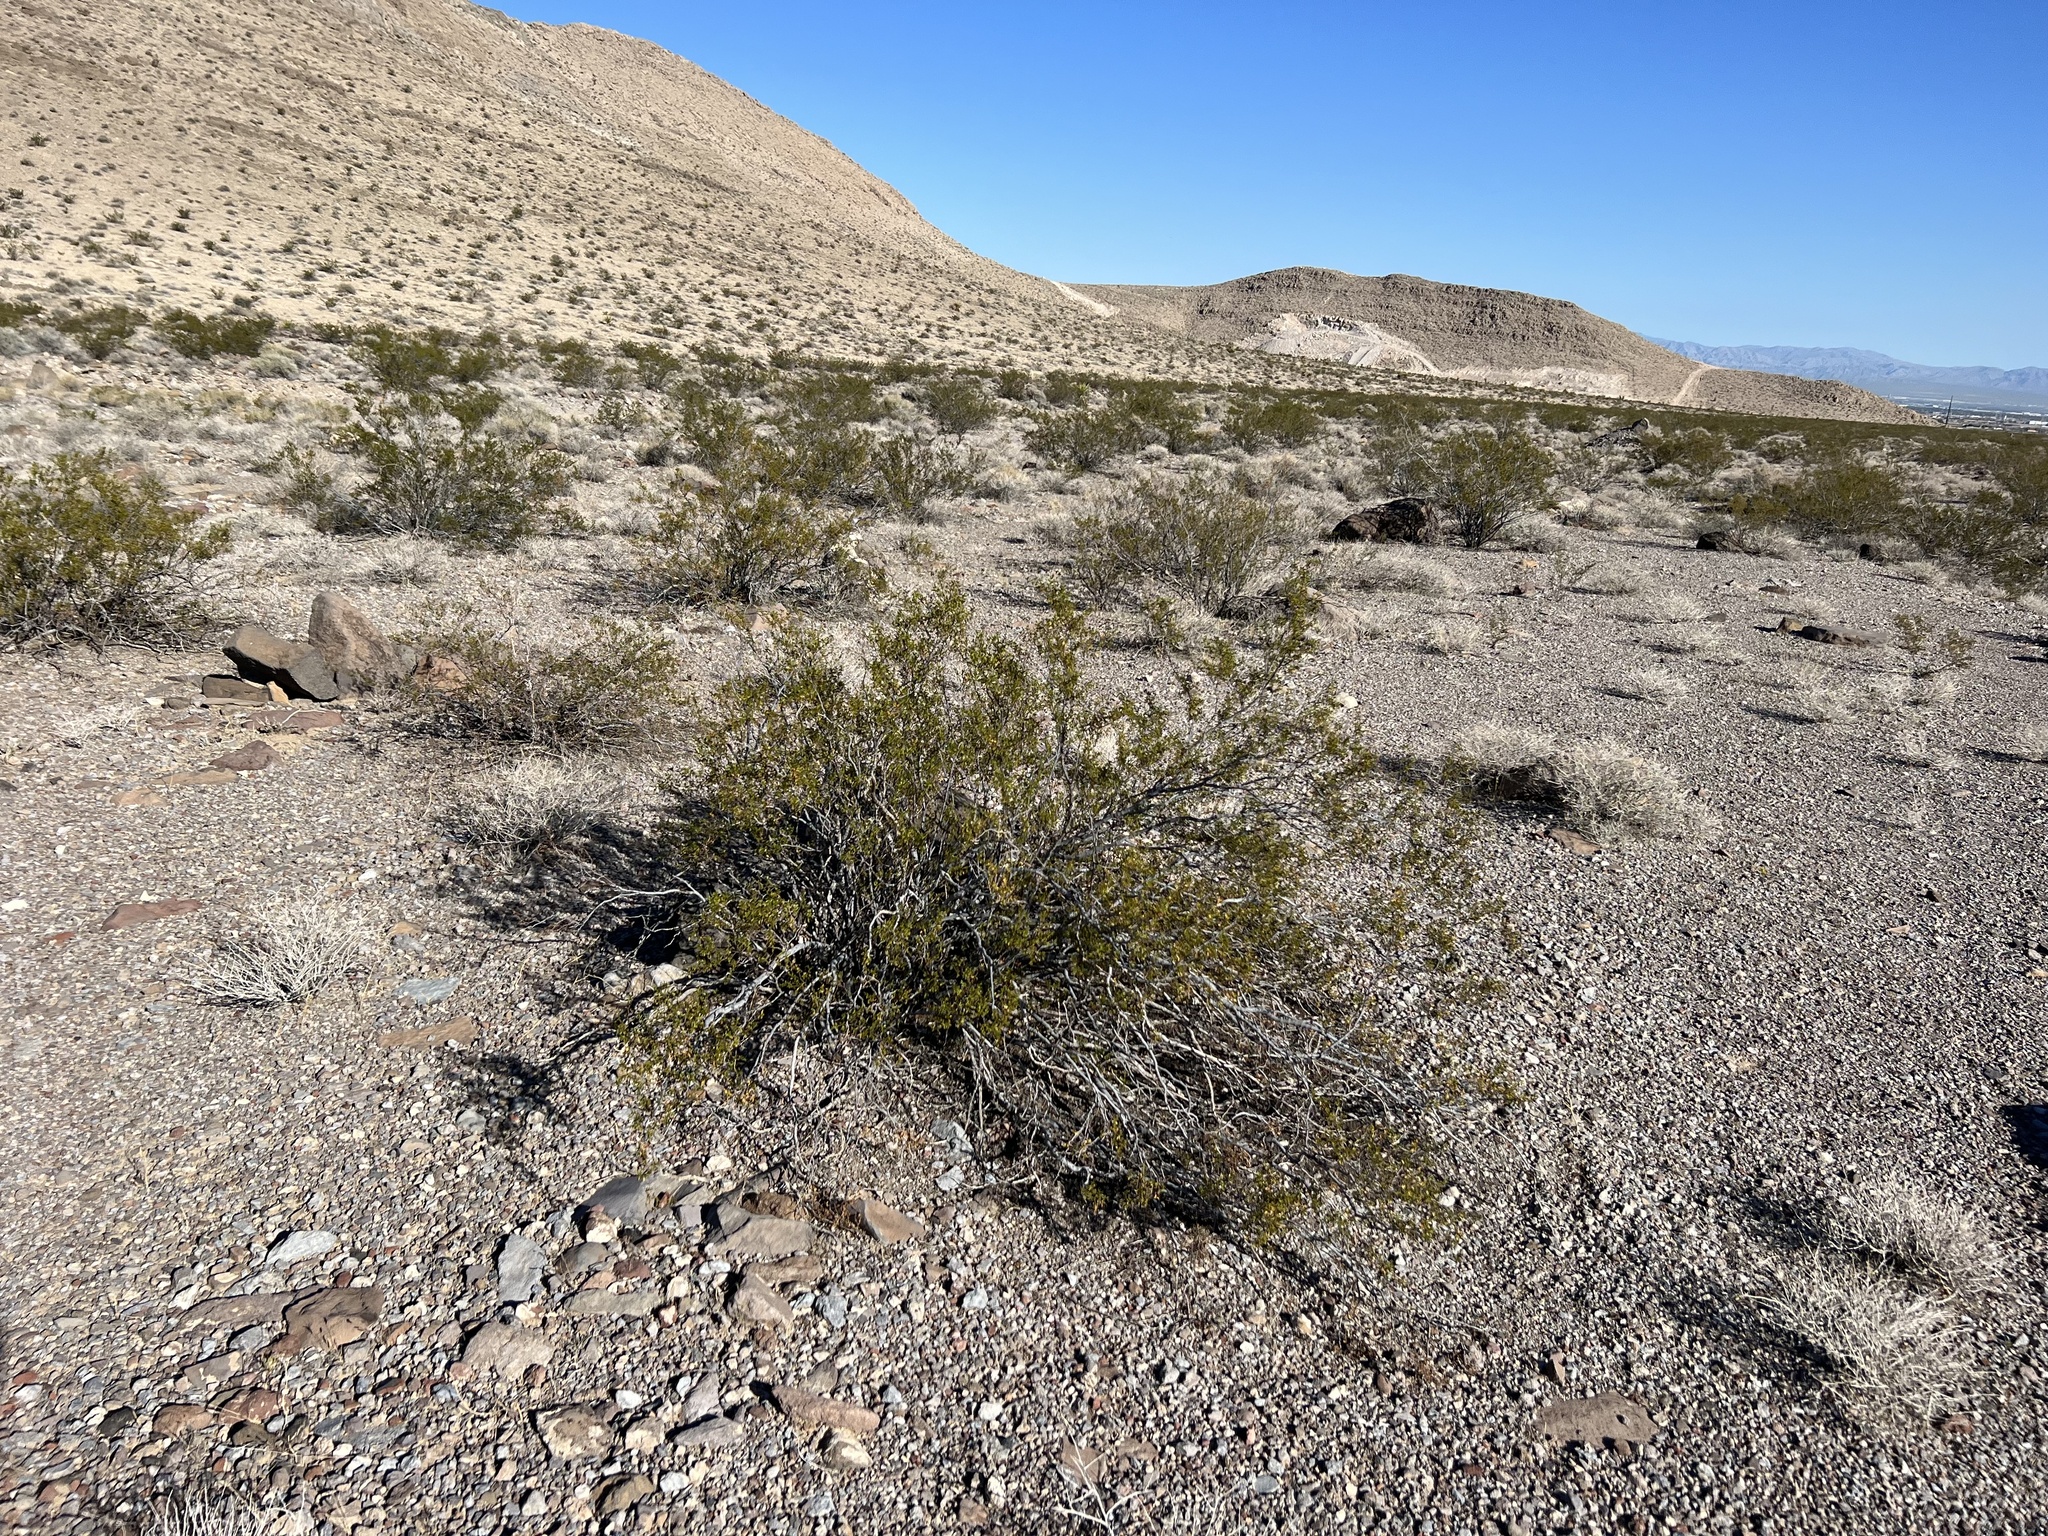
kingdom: Plantae
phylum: Tracheophyta
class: Magnoliopsida
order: Zygophyllales
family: Zygophyllaceae
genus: Larrea
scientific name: Larrea tridentata
